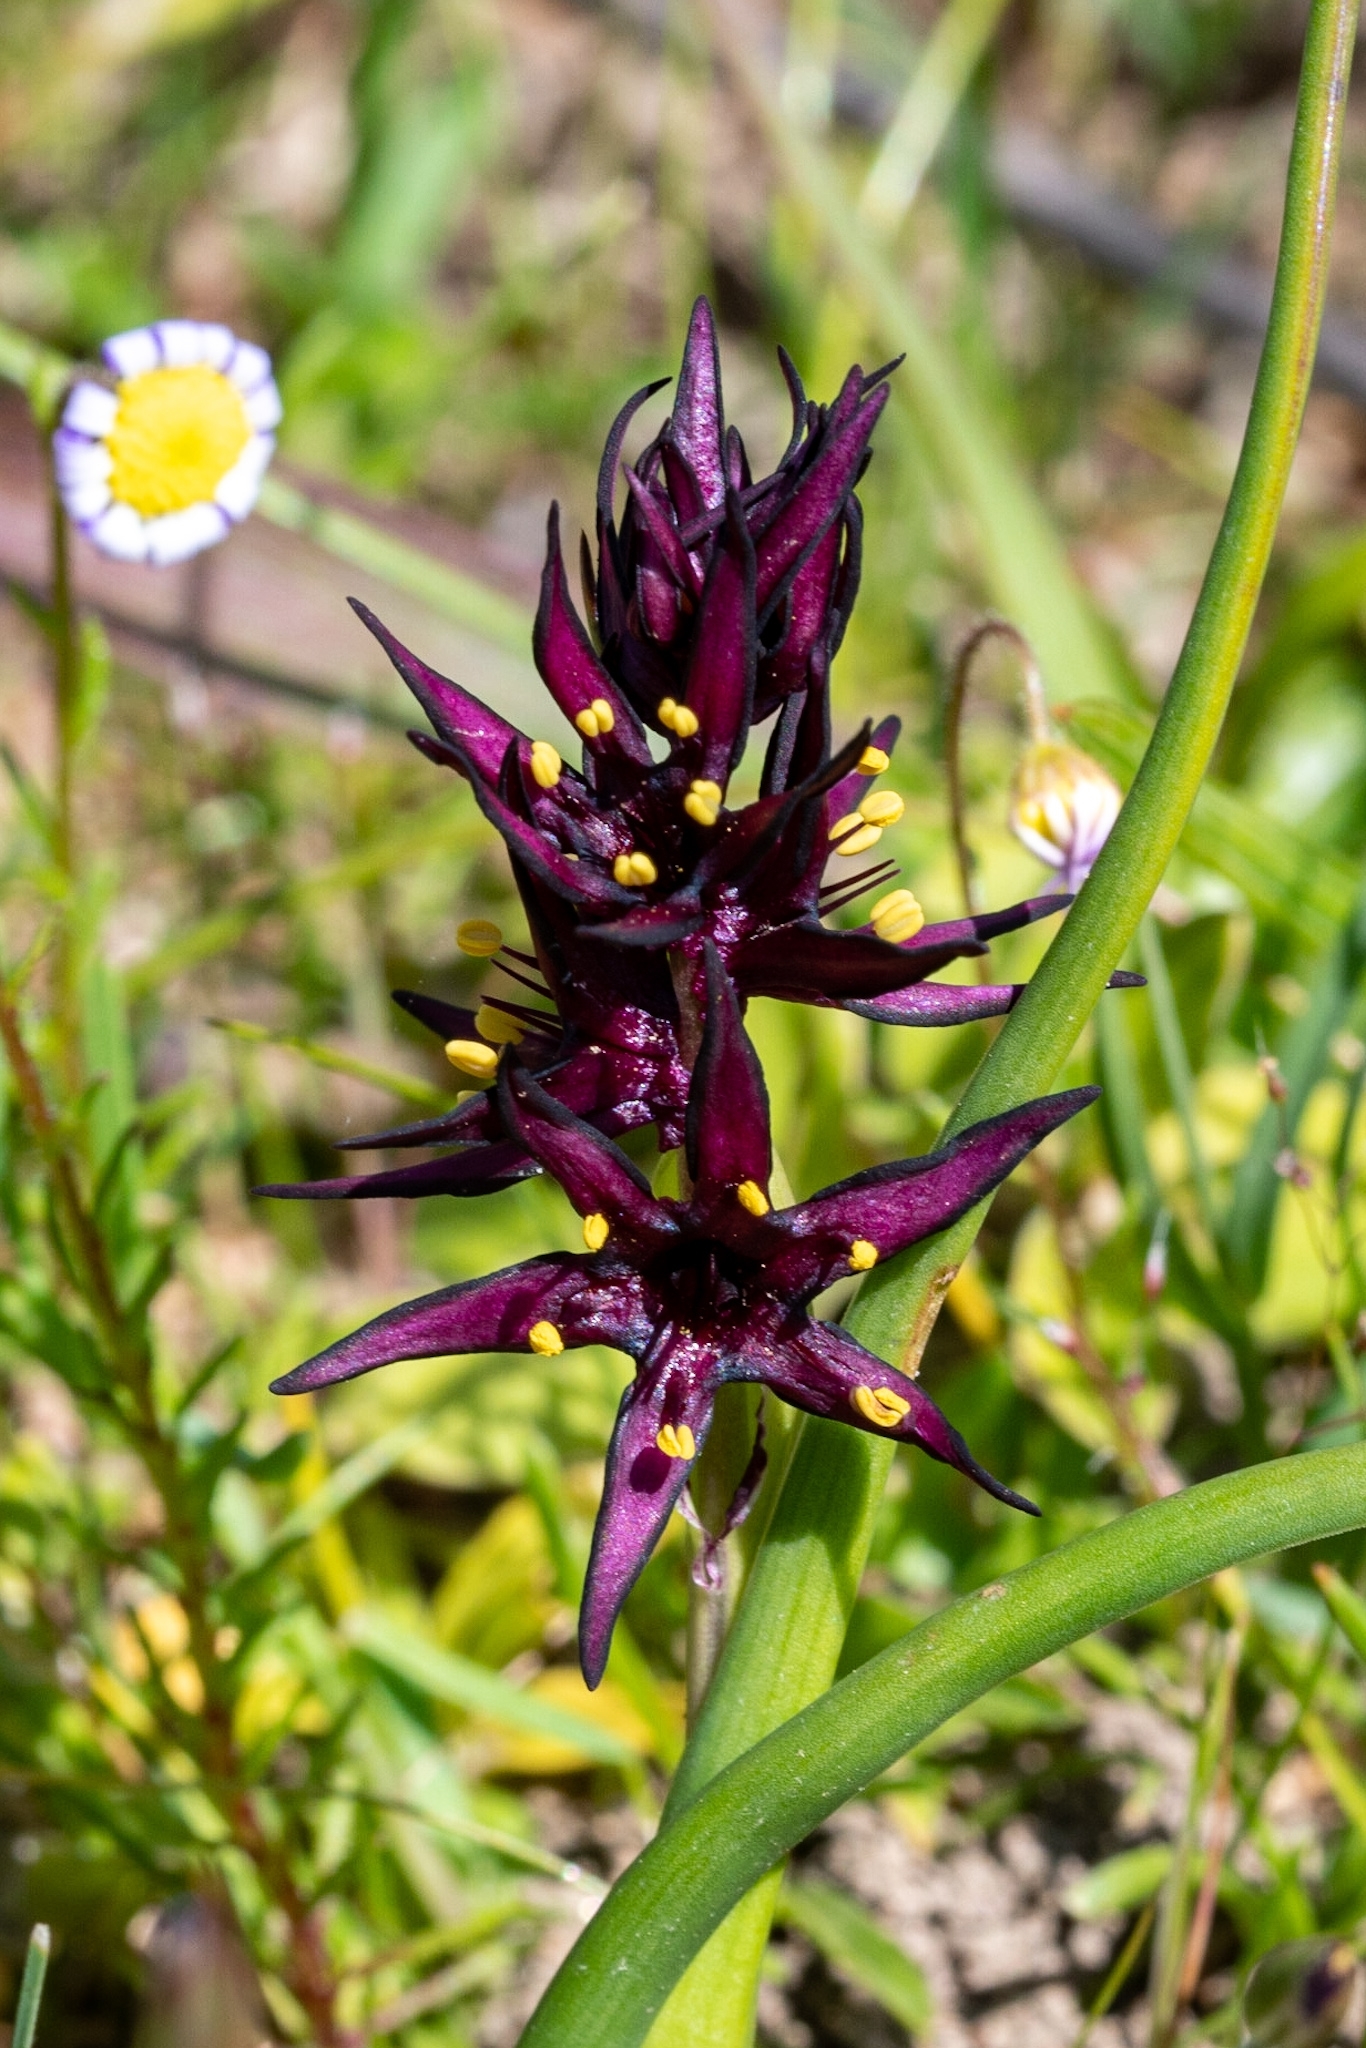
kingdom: Plantae
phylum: Tracheophyta
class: Liliopsida
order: Liliales
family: Colchicaceae
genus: Wurmbea
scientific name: Wurmbea marginata
